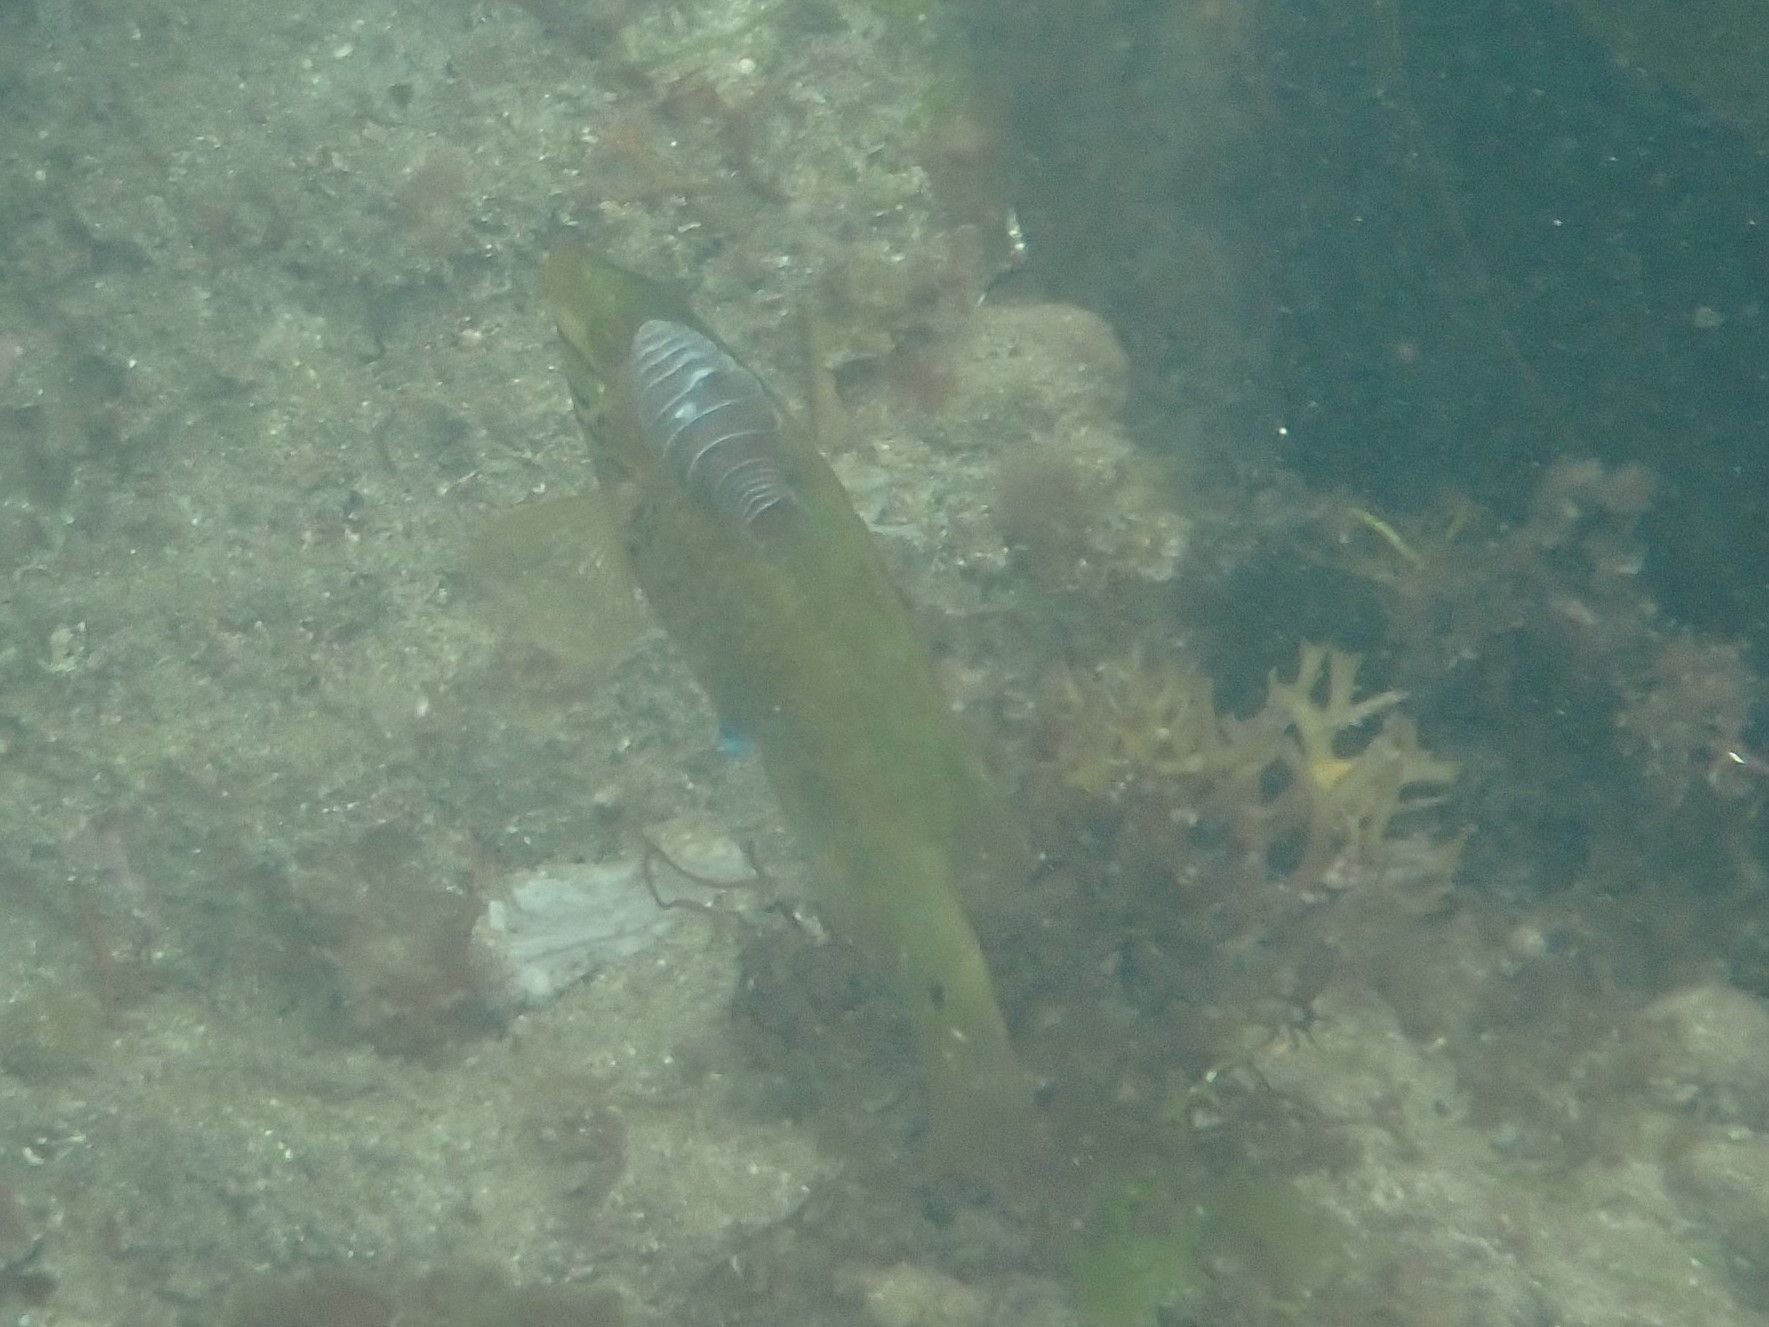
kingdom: Animalia
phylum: Chordata
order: Perciformes
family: Labridae
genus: Symphodus
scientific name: Symphodus melops
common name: Corkwing
